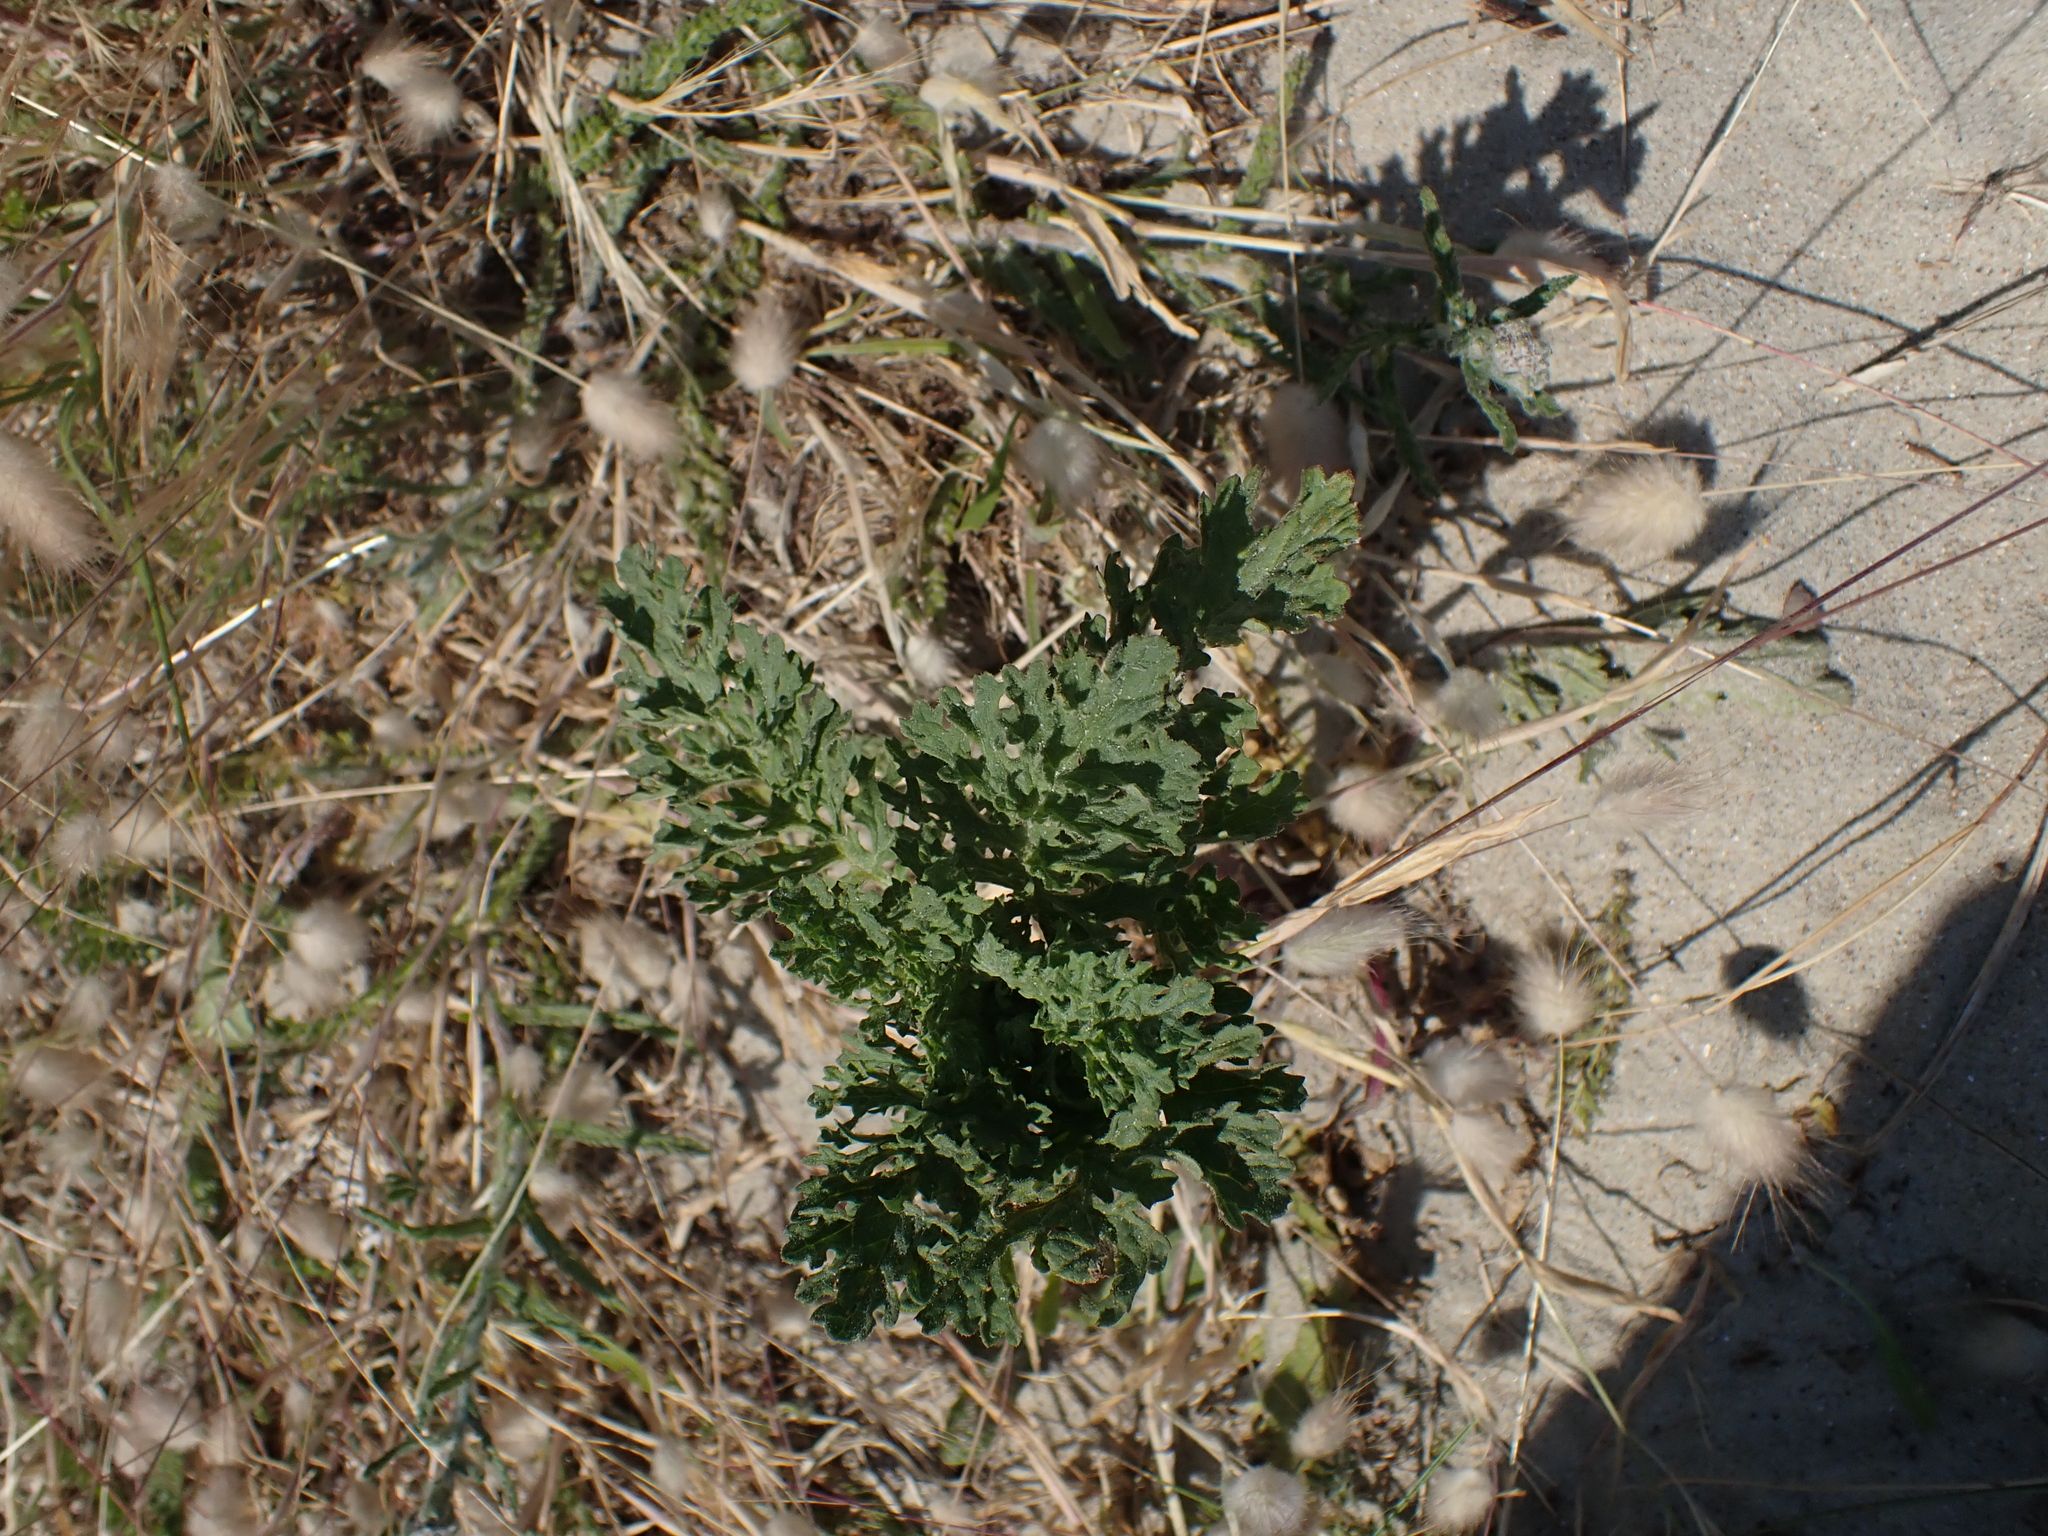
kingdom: Plantae
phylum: Tracheophyta
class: Magnoliopsida
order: Asterales
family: Asteraceae
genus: Jacobaea
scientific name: Jacobaea vulgaris
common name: Stinking willie
